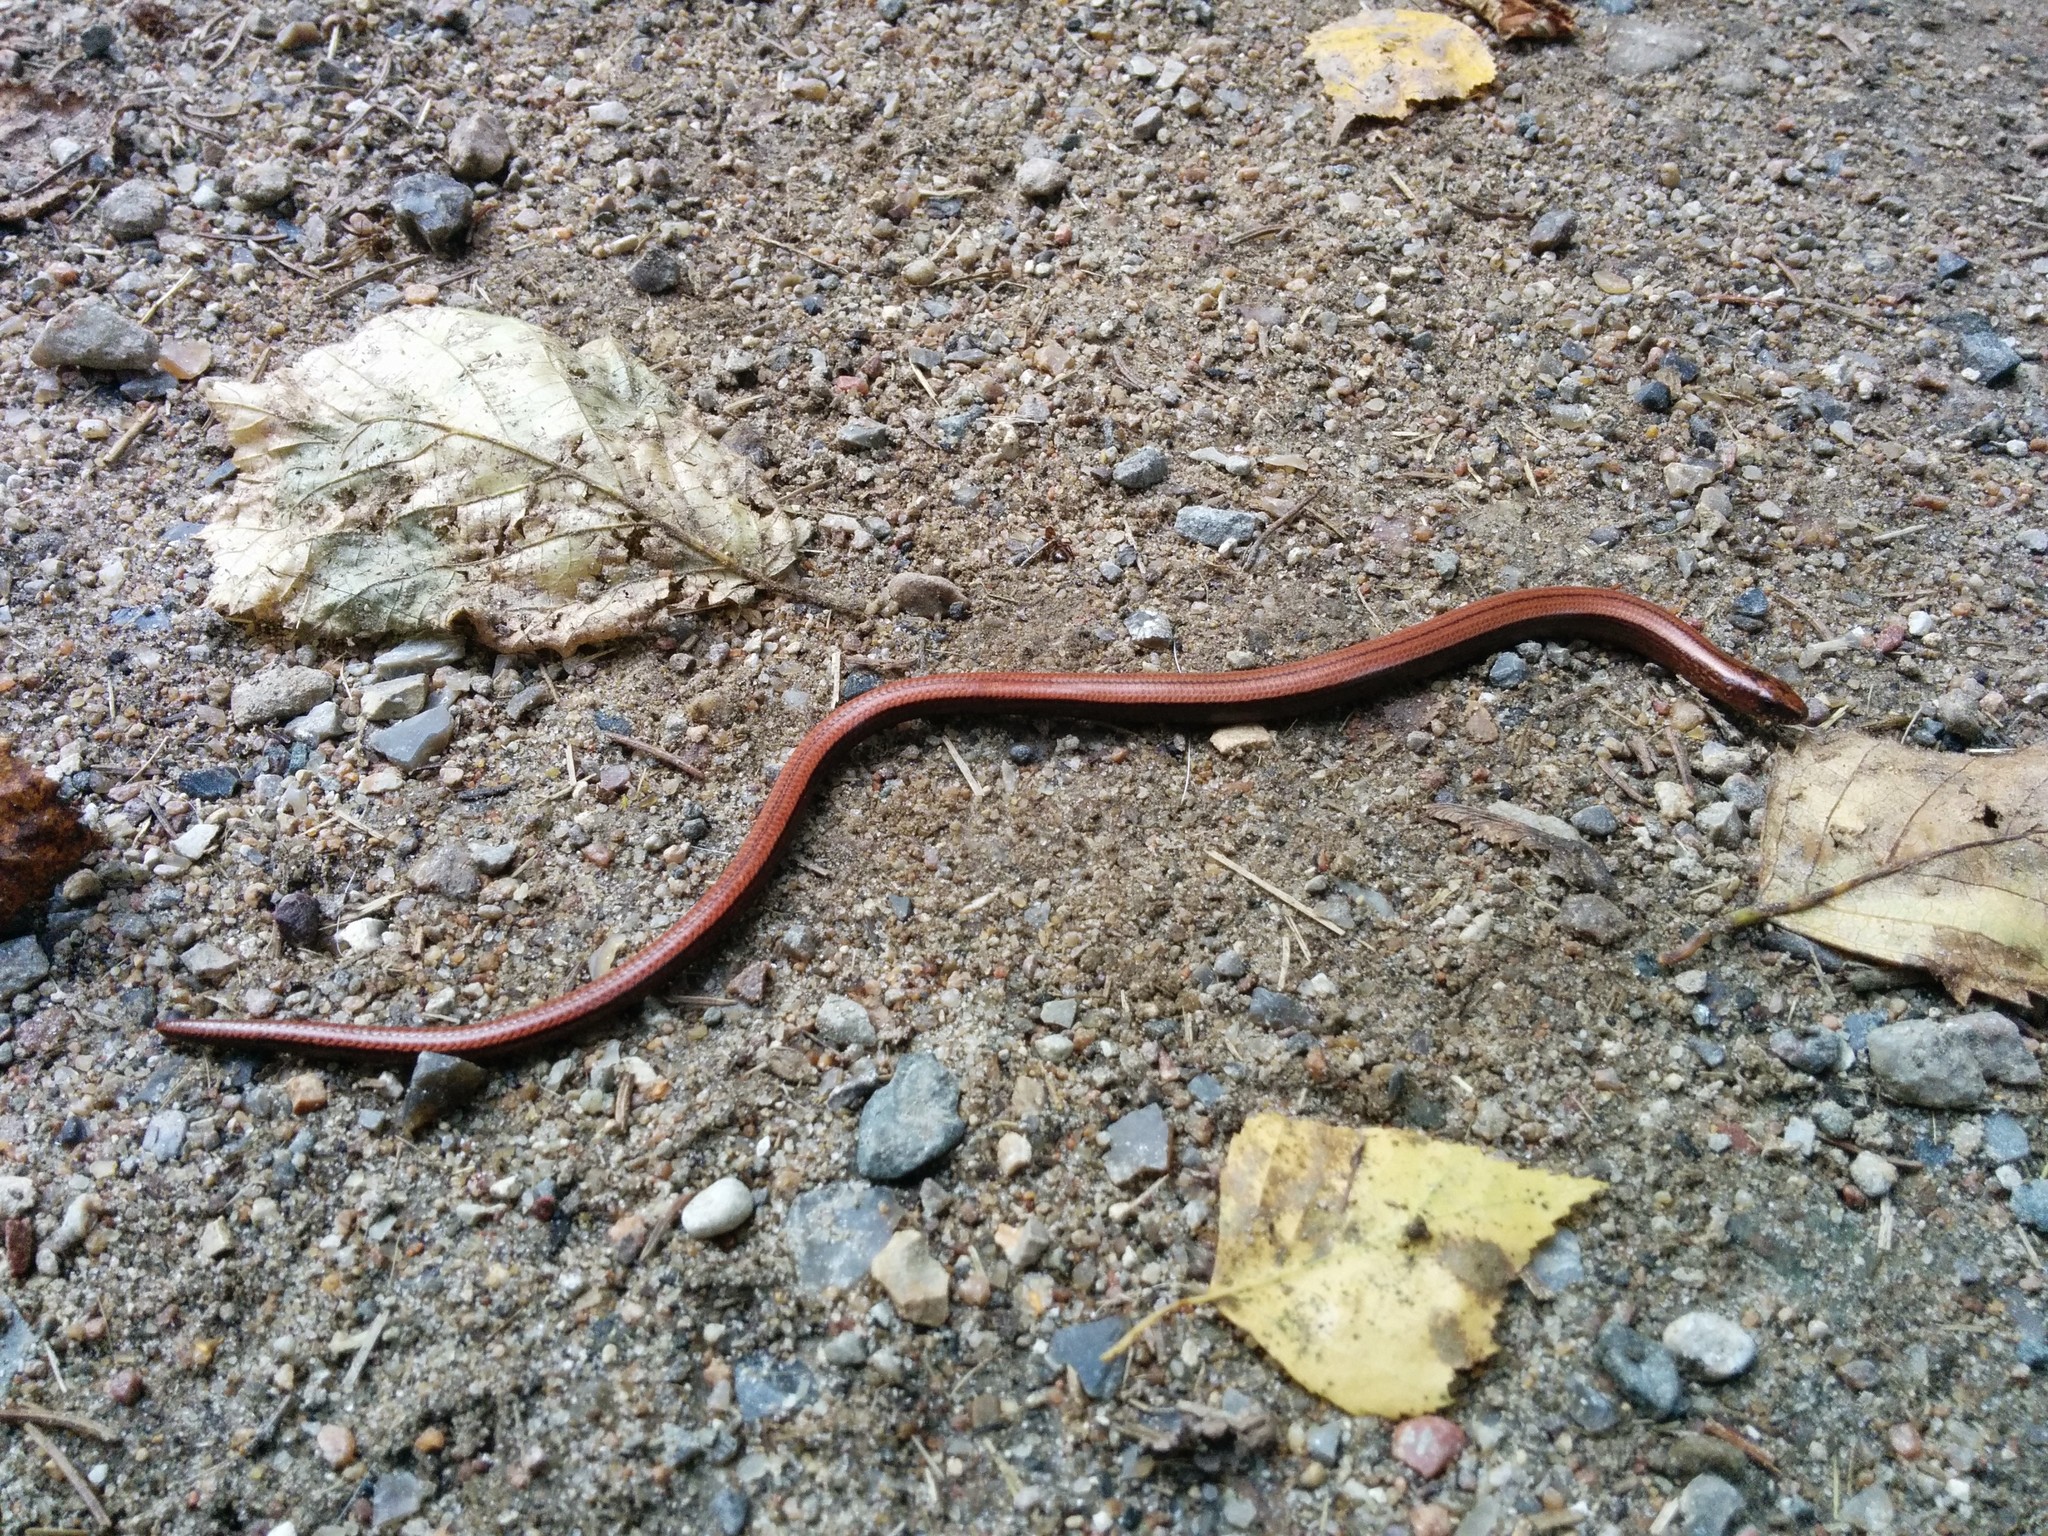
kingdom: Animalia
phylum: Chordata
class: Squamata
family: Anguidae
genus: Anguis
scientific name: Anguis fragilis
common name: Slow worm
